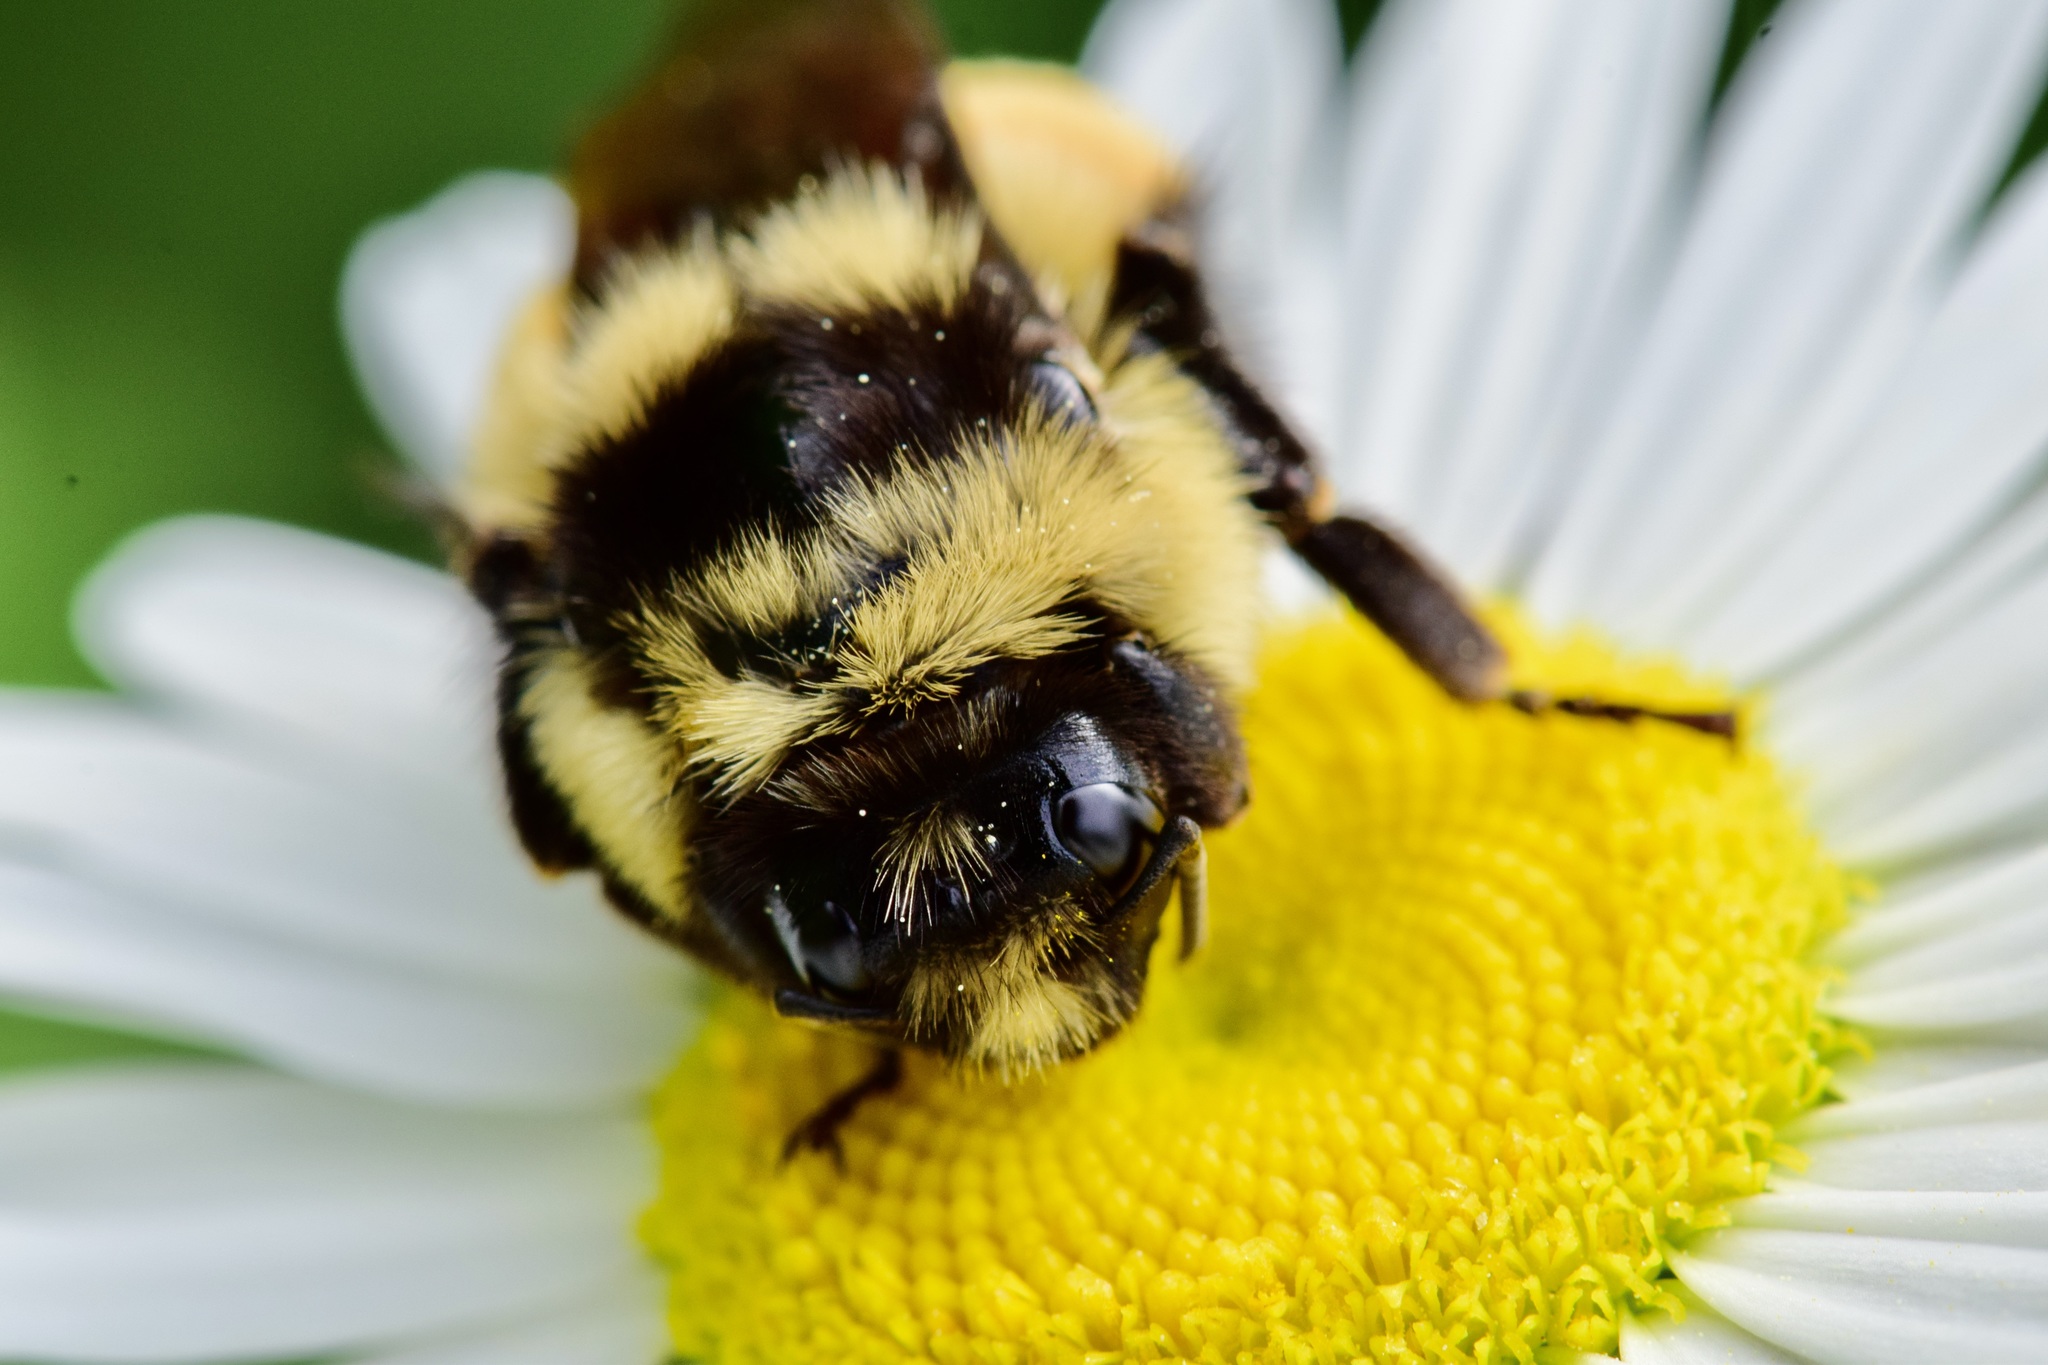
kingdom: Animalia
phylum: Arthropoda
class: Insecta
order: Hymenoptera
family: Apidae
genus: Bombus
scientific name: Bombus ternarius
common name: Tri-colored bumble bee
